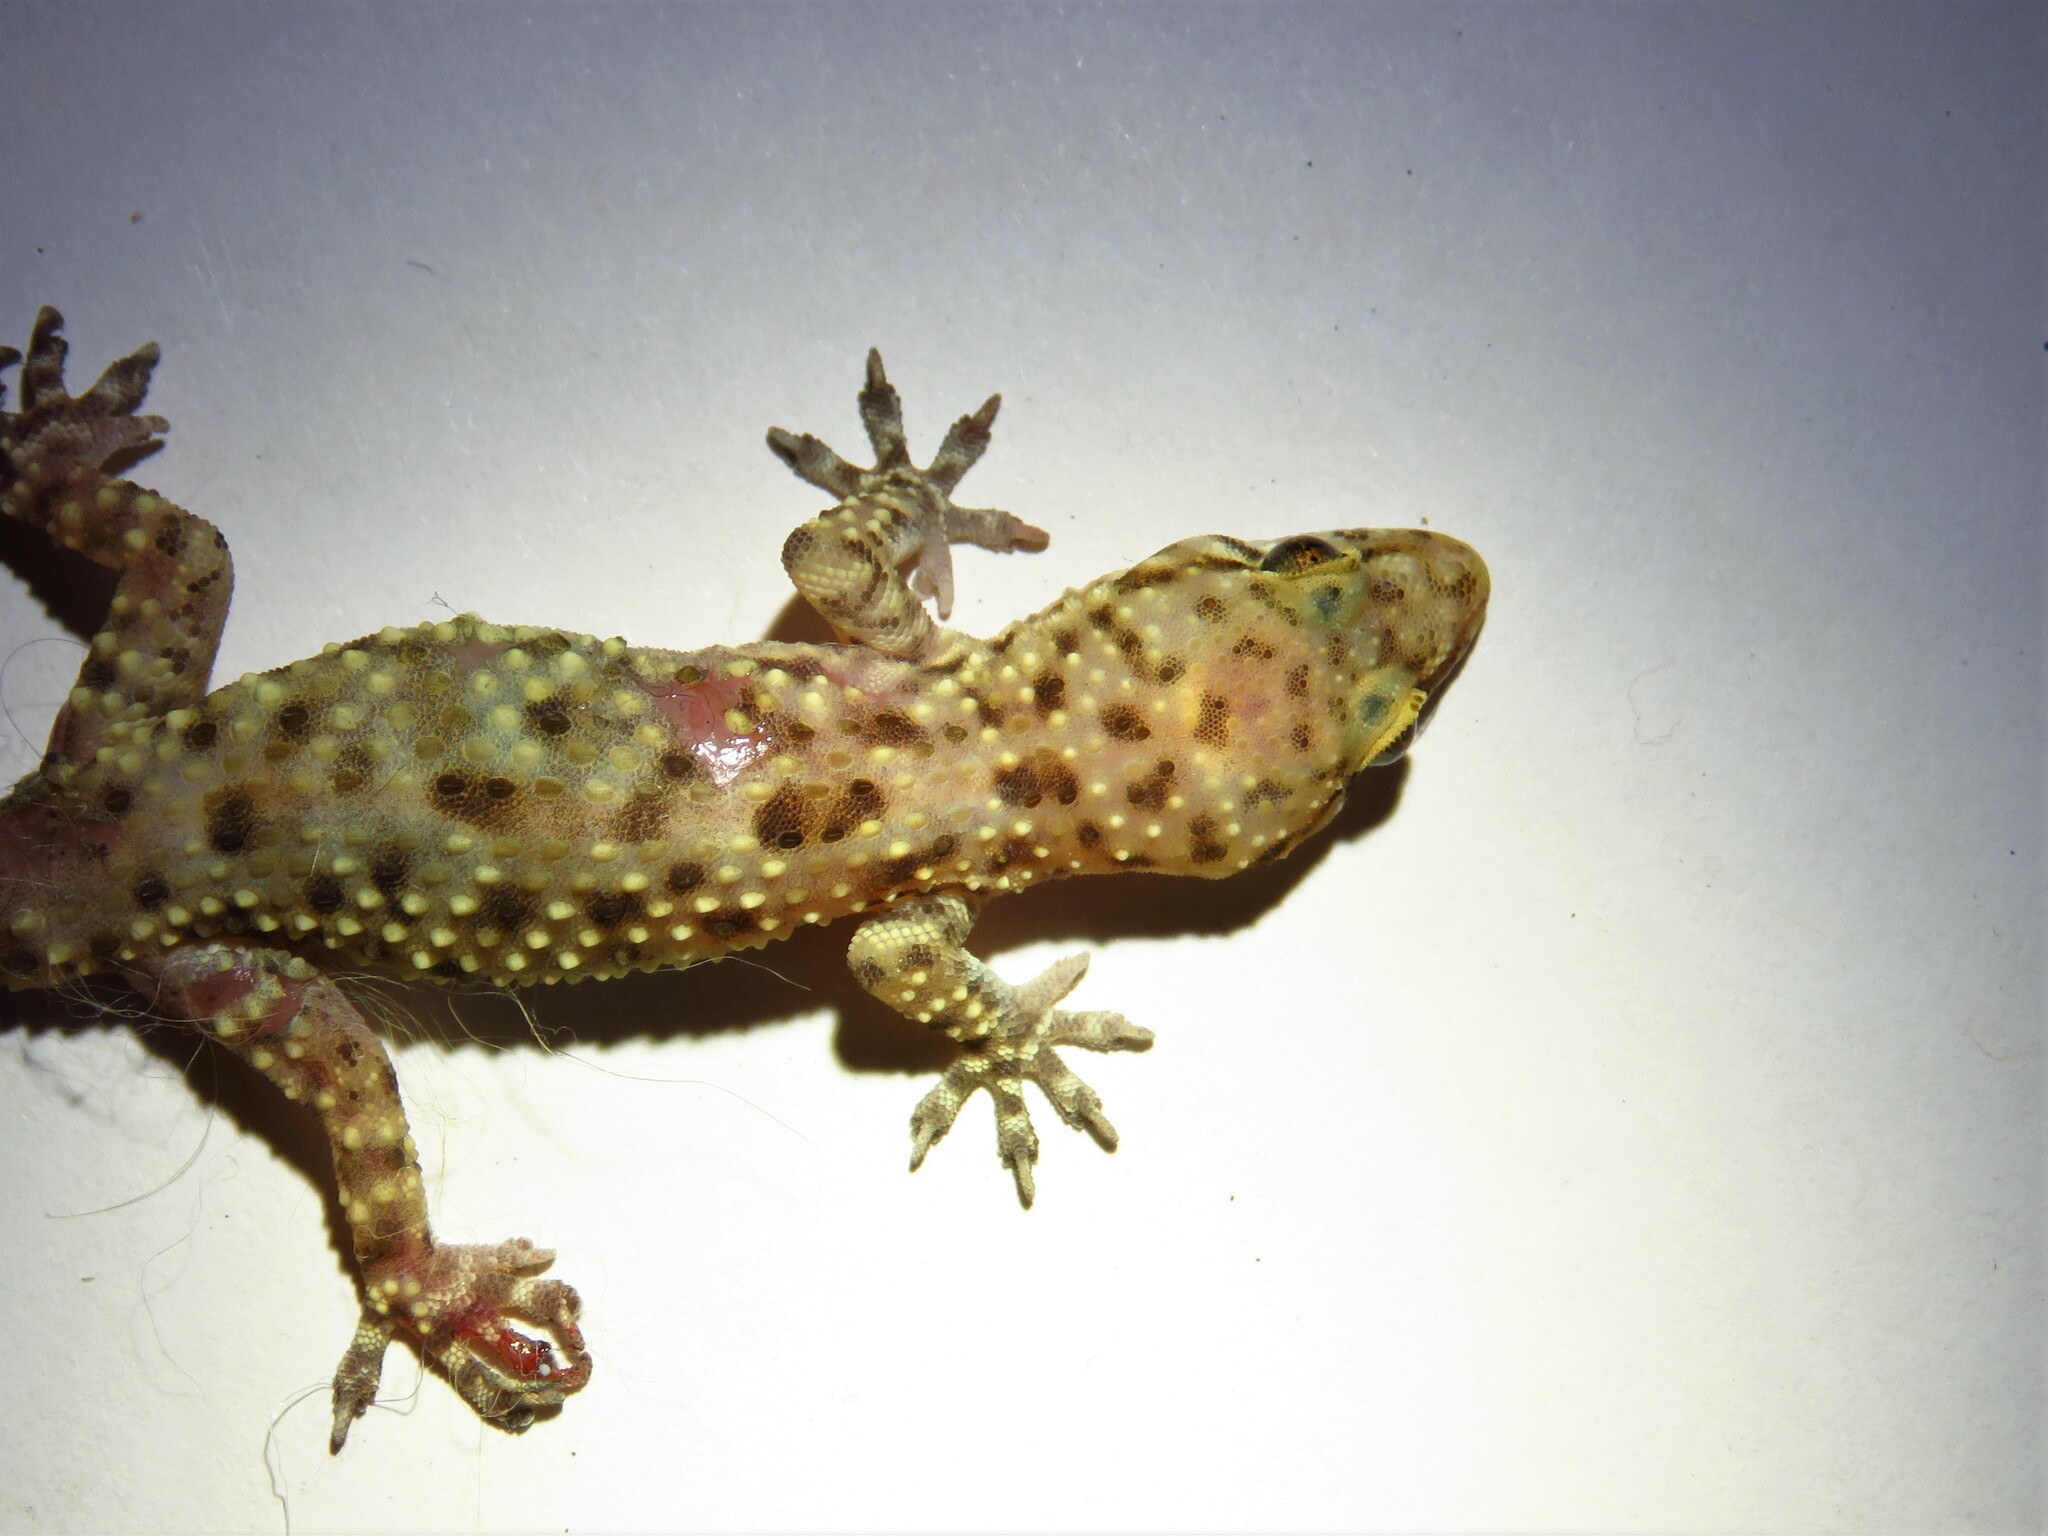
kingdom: Animalia
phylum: Chordata
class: Squamata
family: Gekkonidae
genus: Hemidactylus
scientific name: Hemidactylus turcicus
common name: Turkish gecko
